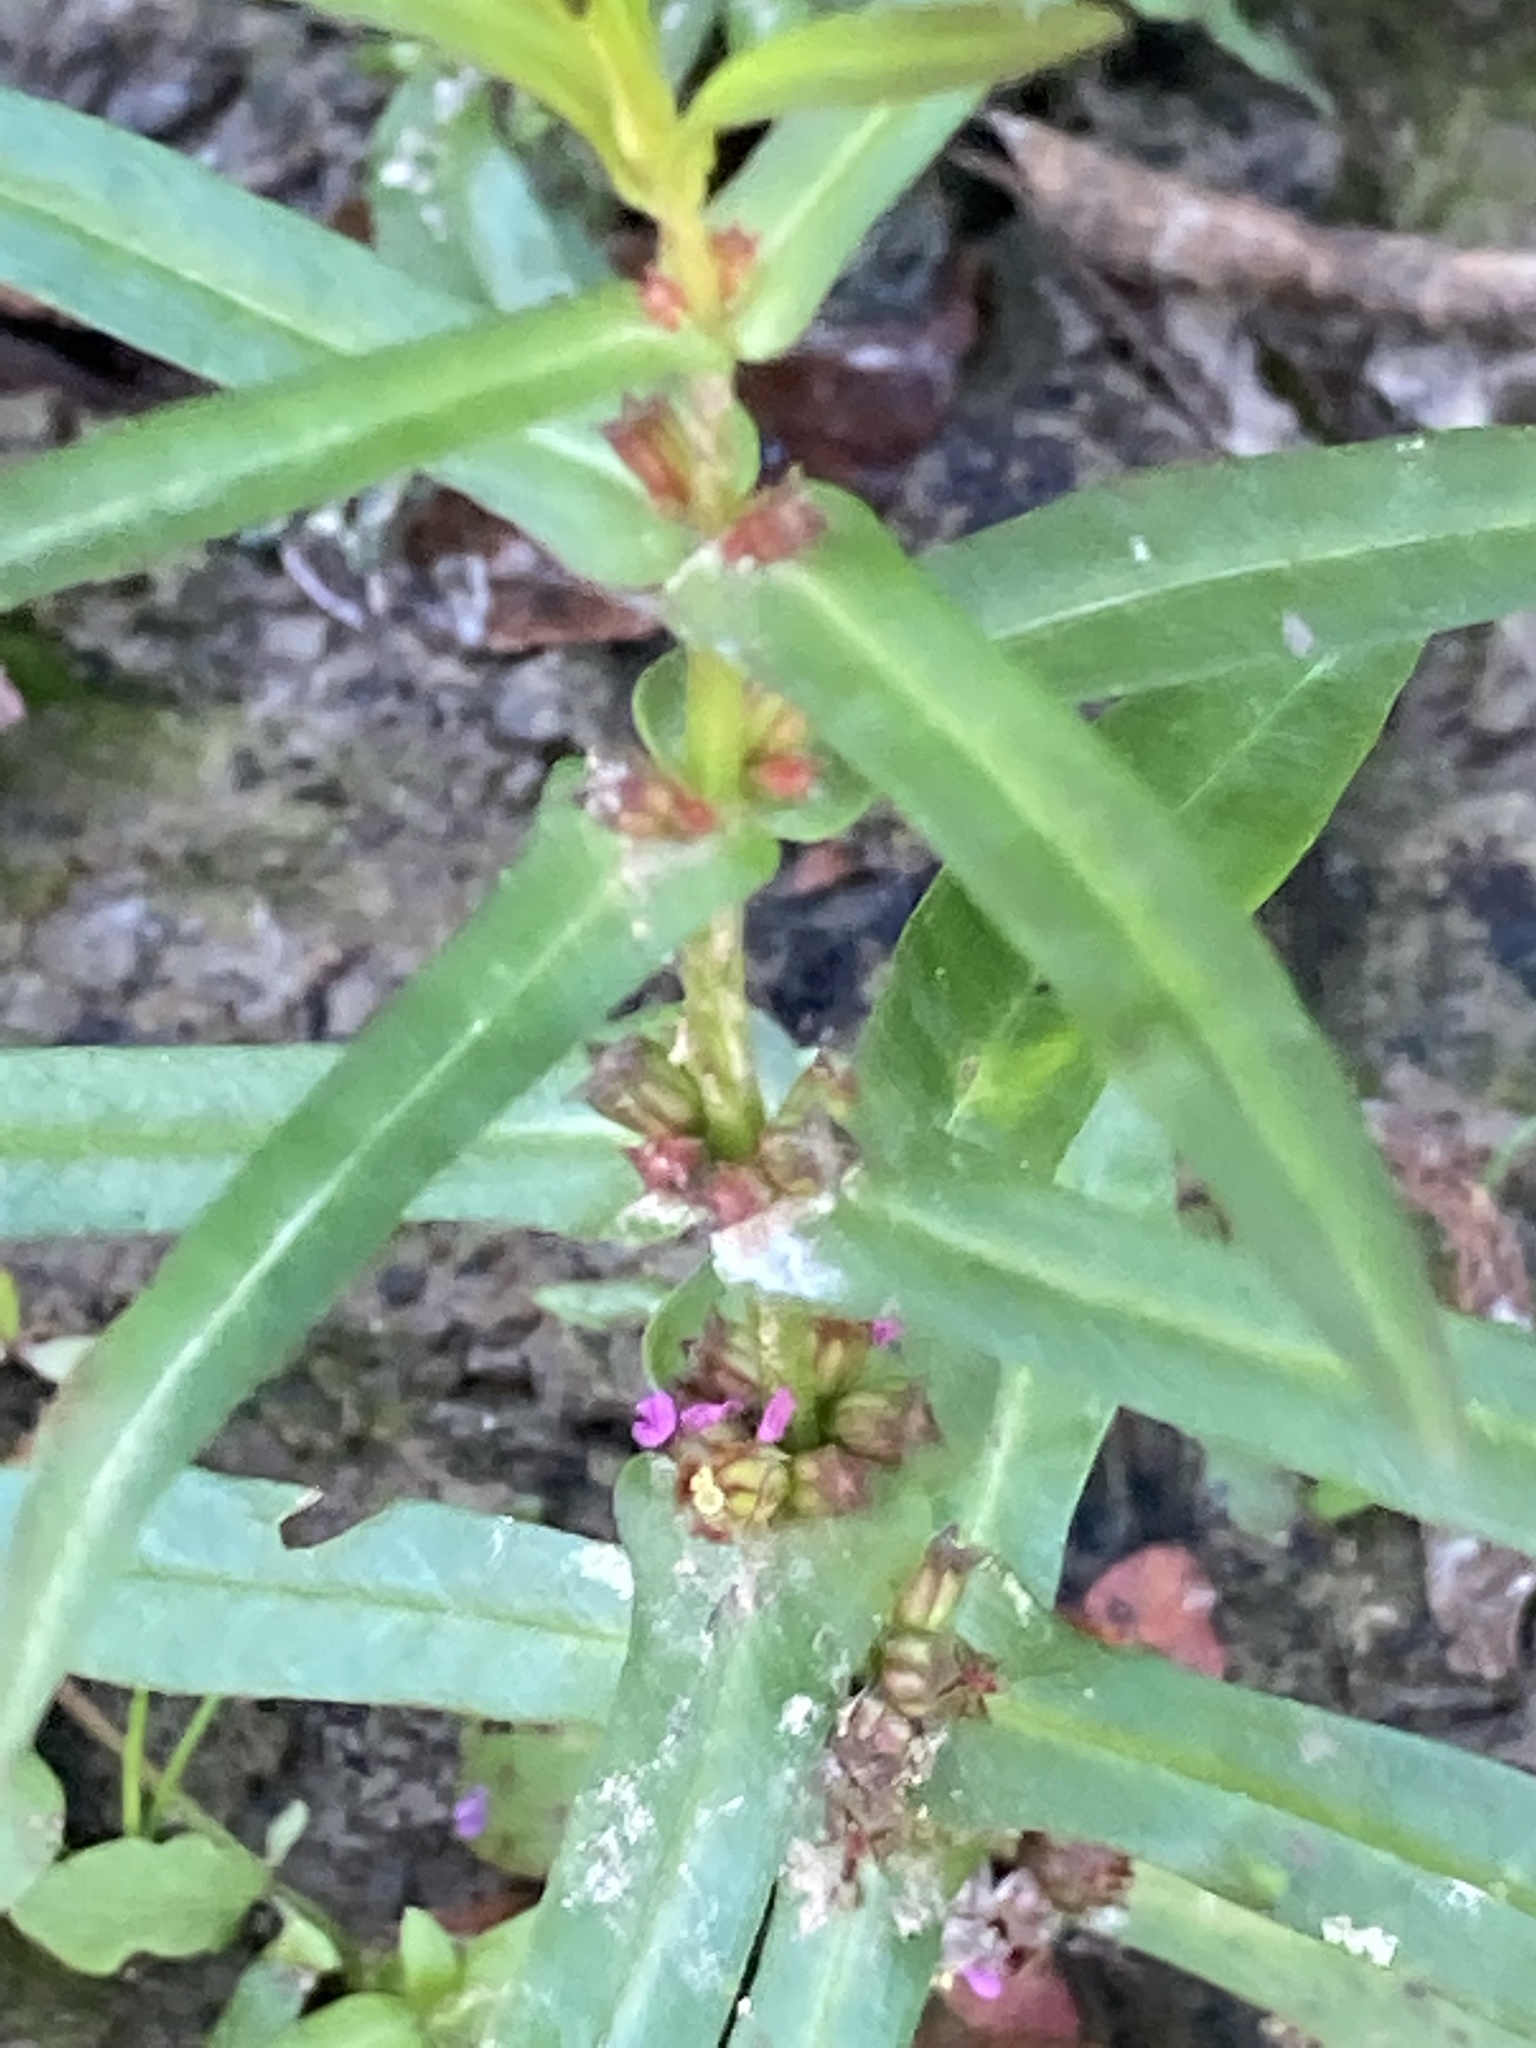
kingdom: Plantae
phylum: Tracheophyta
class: Magnoliopsida
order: Myrtales
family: Lythraceae
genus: Ammannia
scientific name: Ammannia coccinea
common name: Valley redstem
